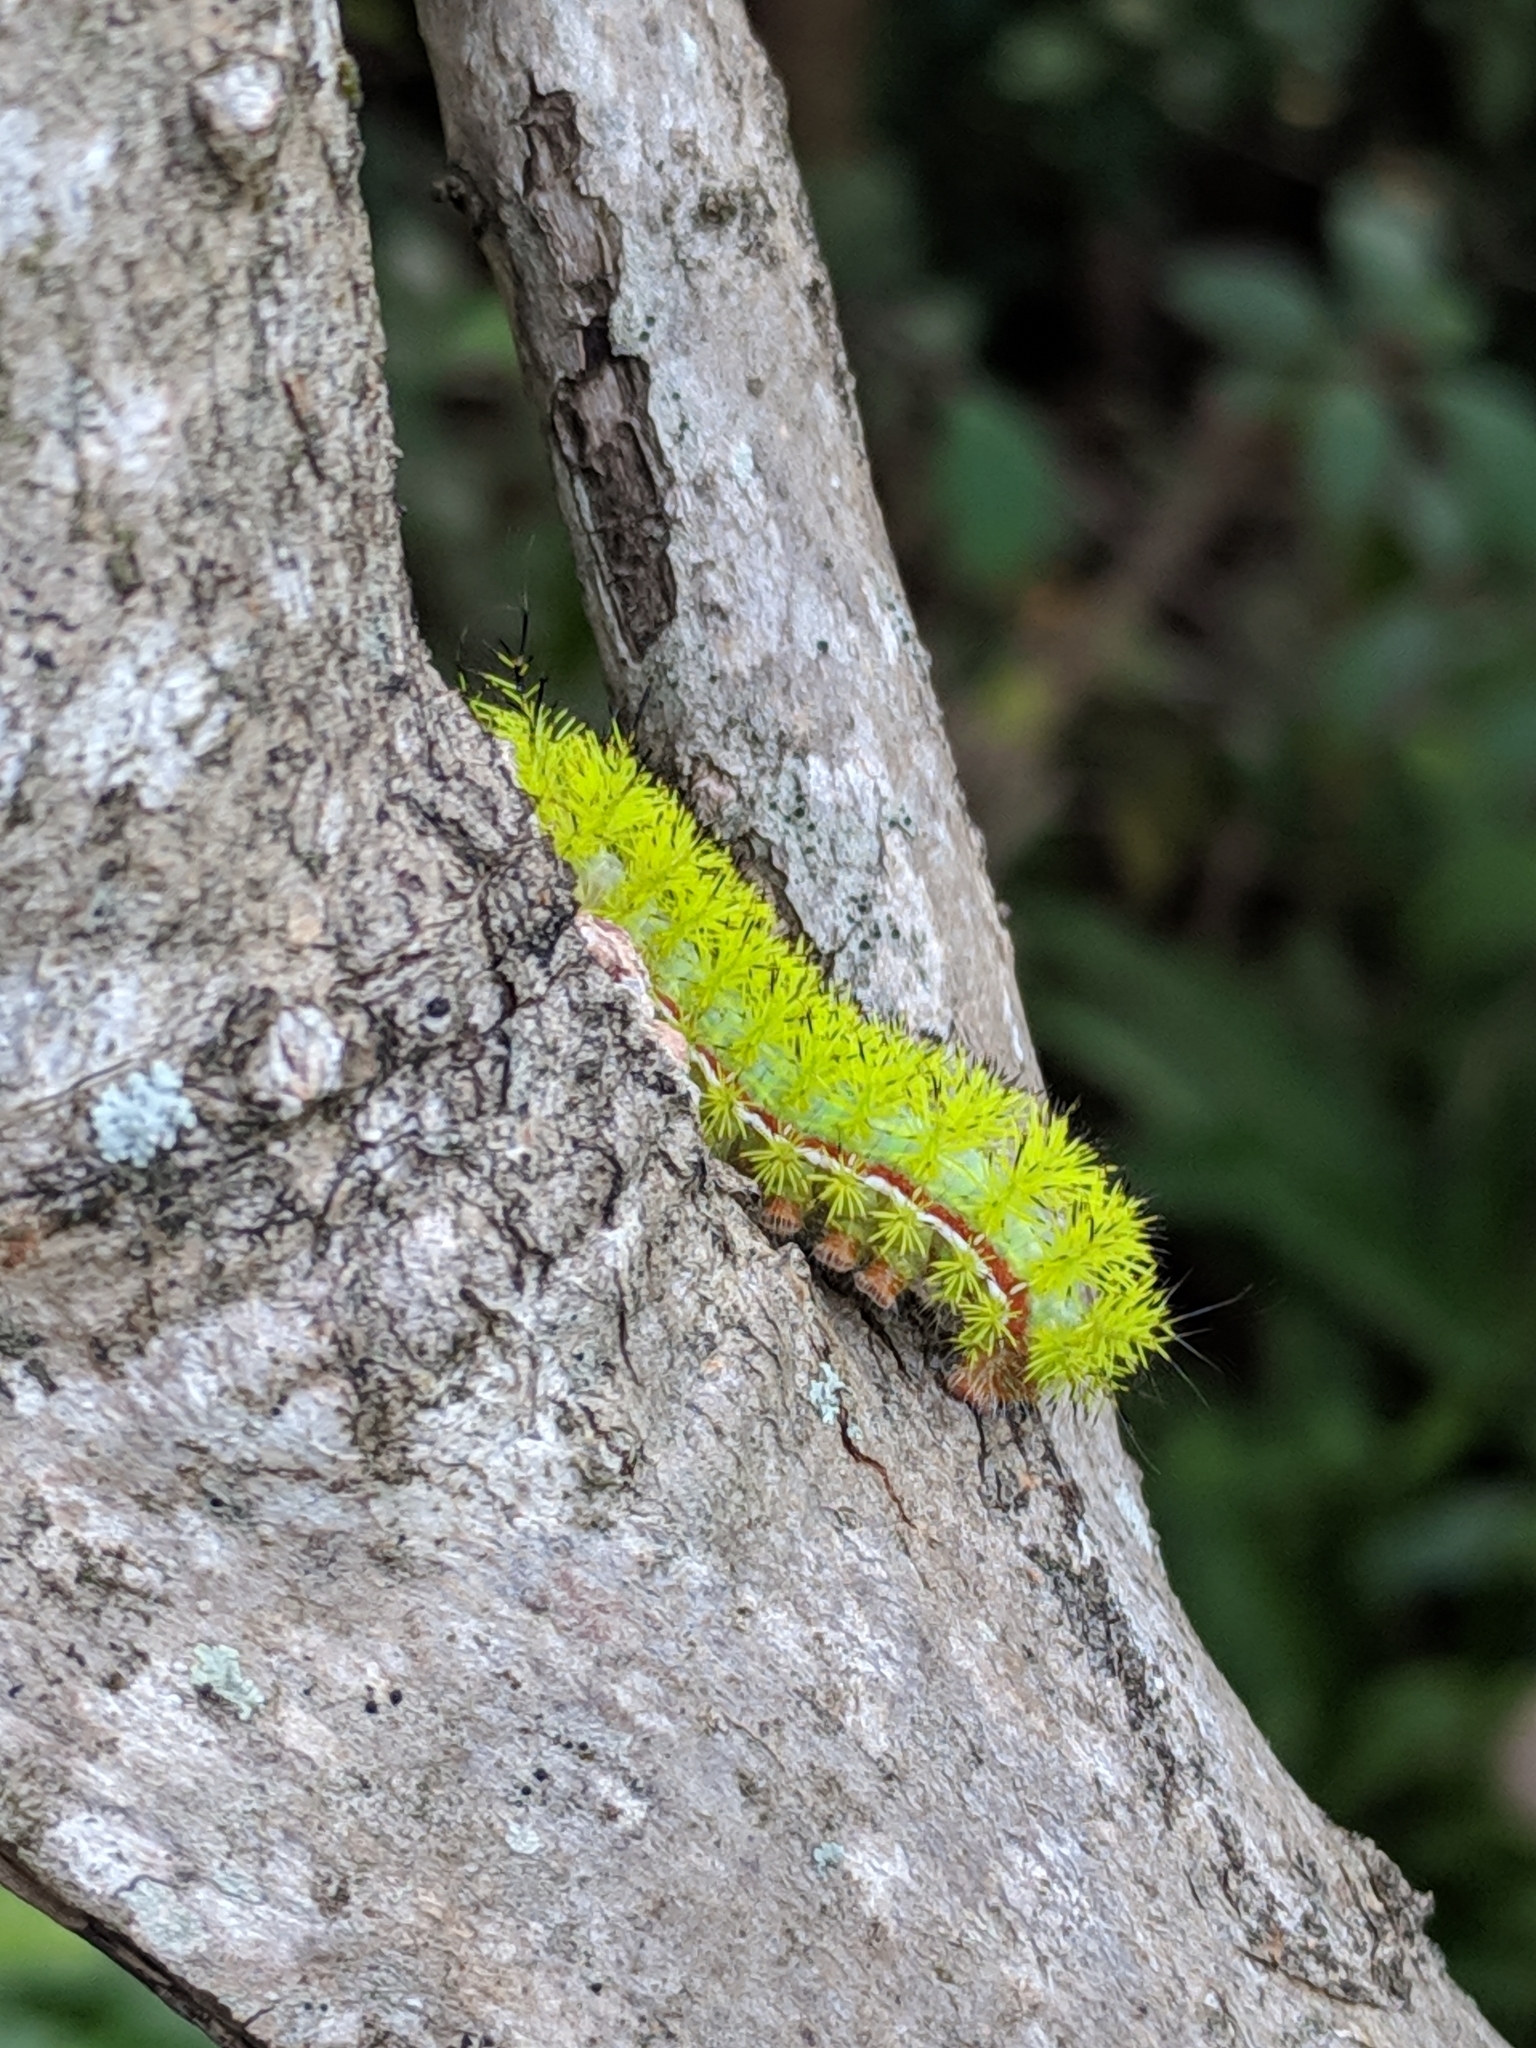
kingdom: Animalia
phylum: Arthropoda
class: Insecta
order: Lepidoptera
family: Saturniidae
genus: Automeris
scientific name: Automeris io
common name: Io moth
